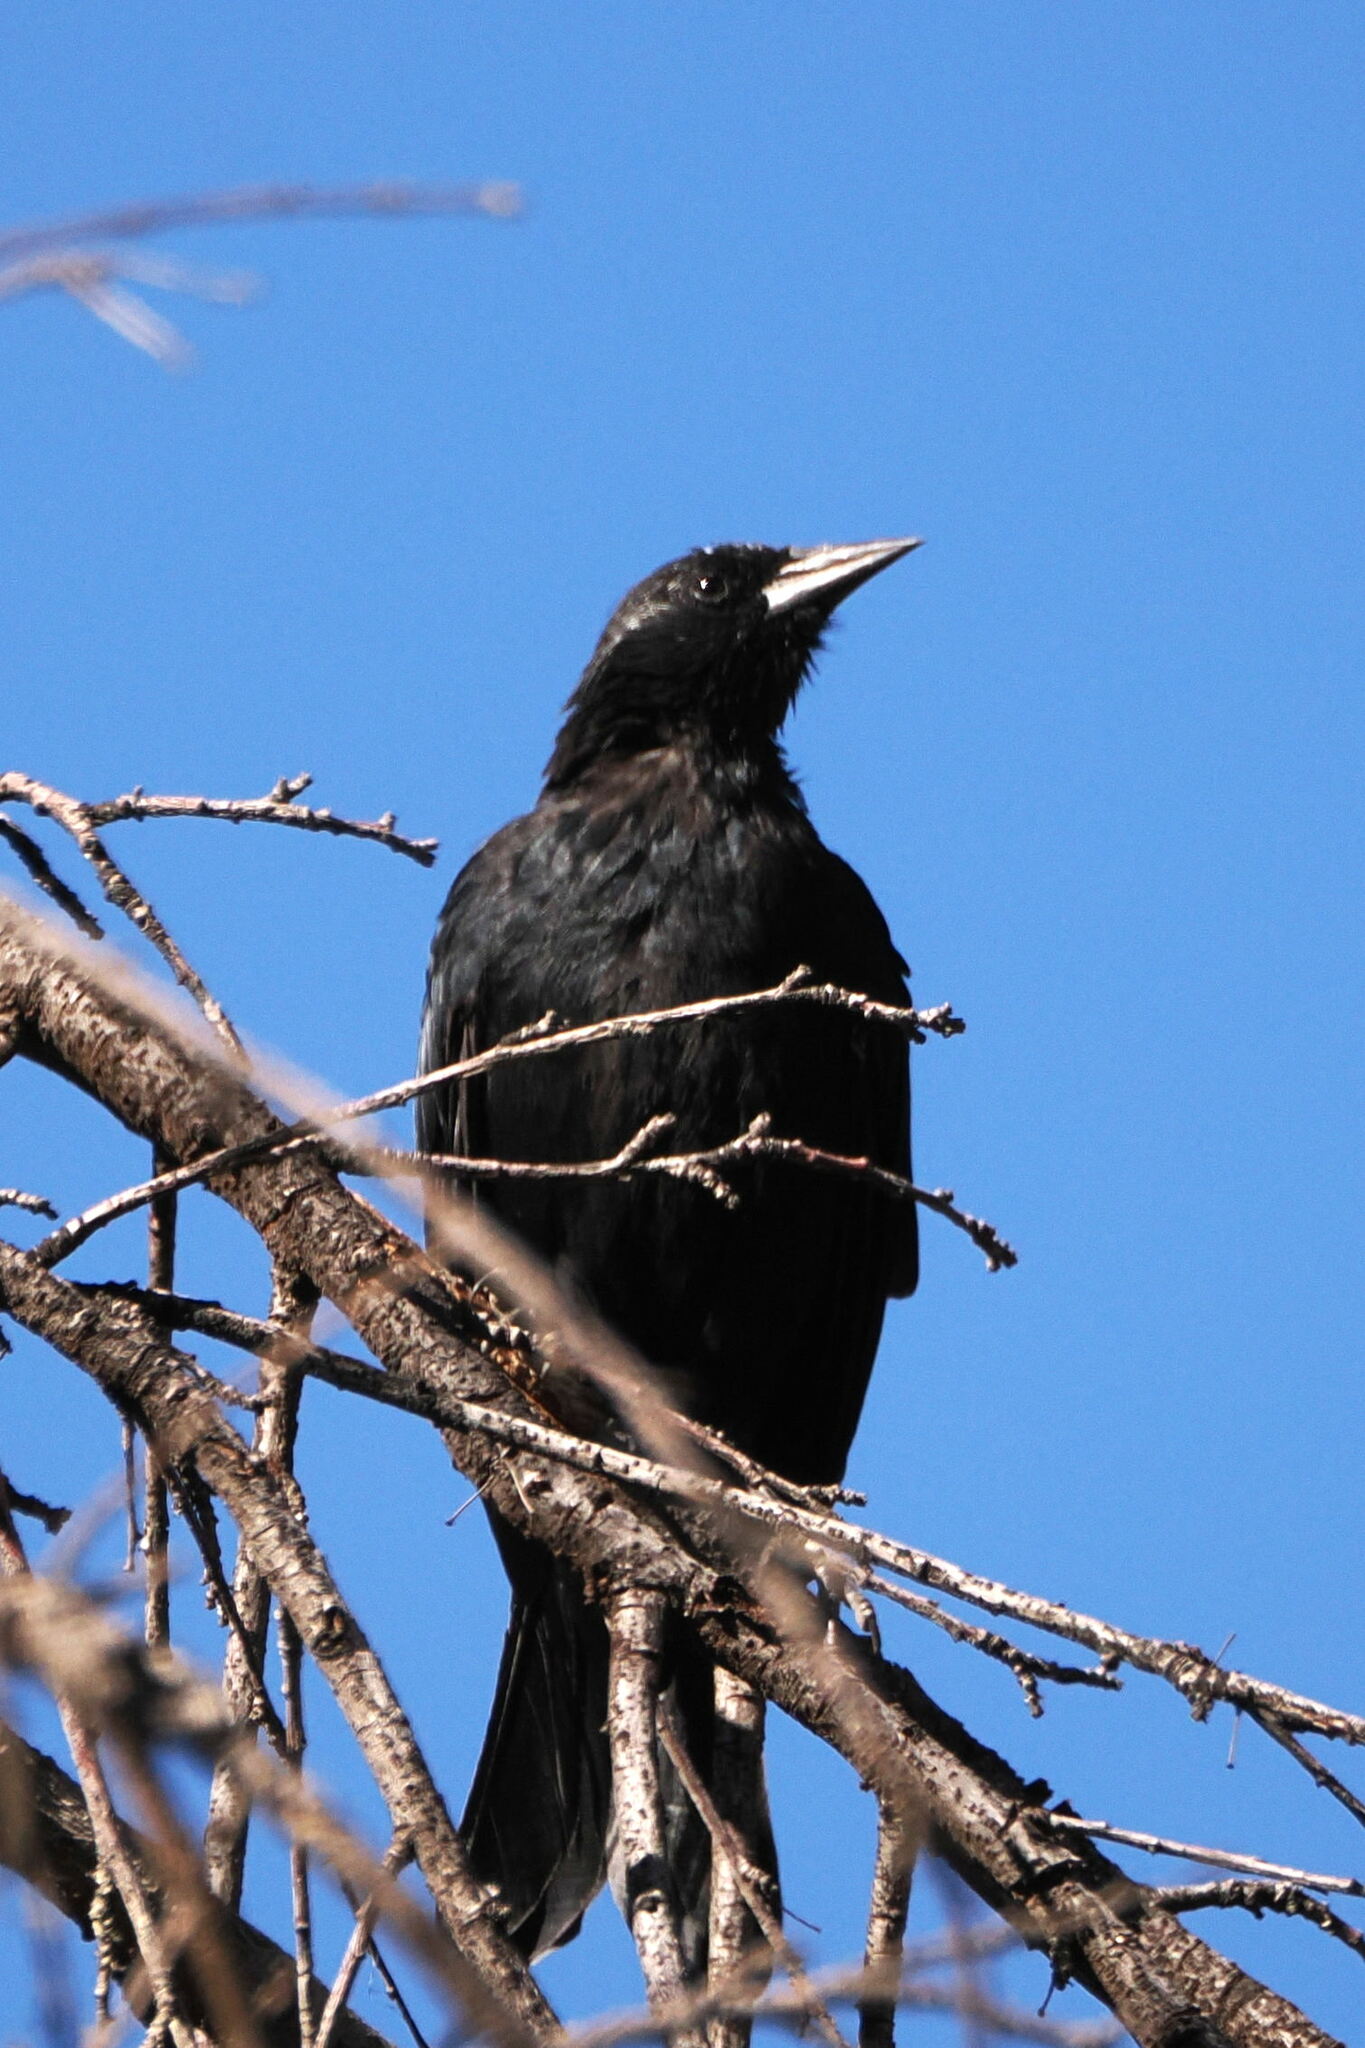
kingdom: Animalia
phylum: Chordata
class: Aves
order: Passeriformes
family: Icteridae
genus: Curaeus
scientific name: Curaeus curaeus
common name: Austral blackbird
